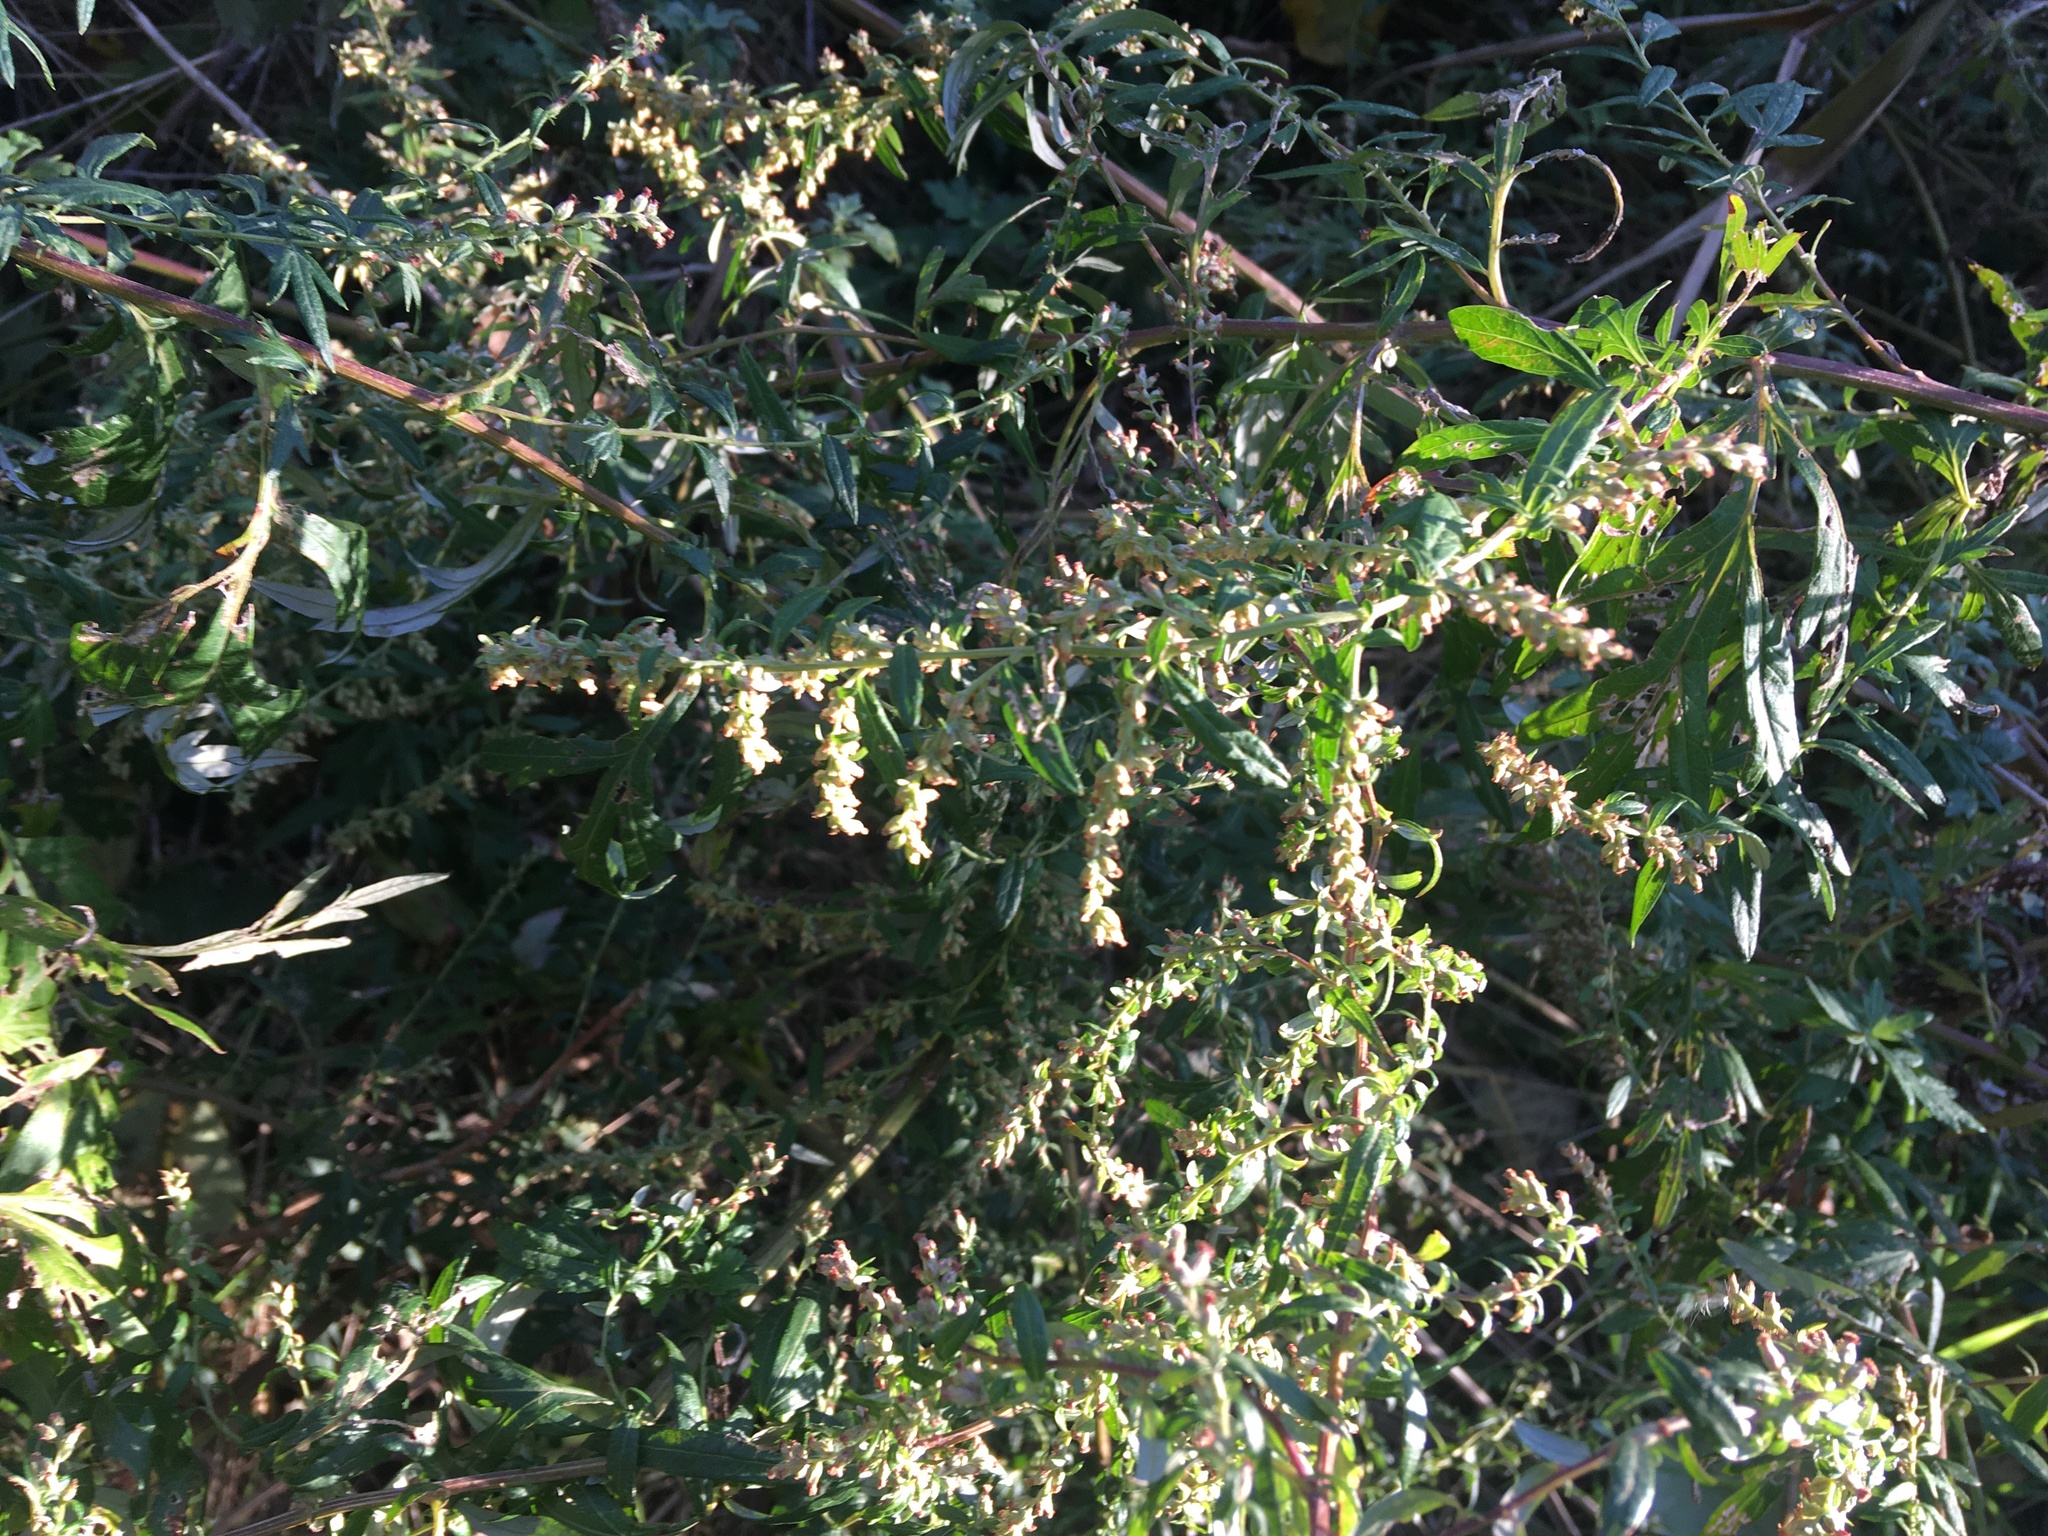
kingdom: Plantae
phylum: Tracheophyta
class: Magnoliopsida
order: Asterales
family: Asteraceae
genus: Artemisia
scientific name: Artemisia vulgaris
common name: Mugwort
